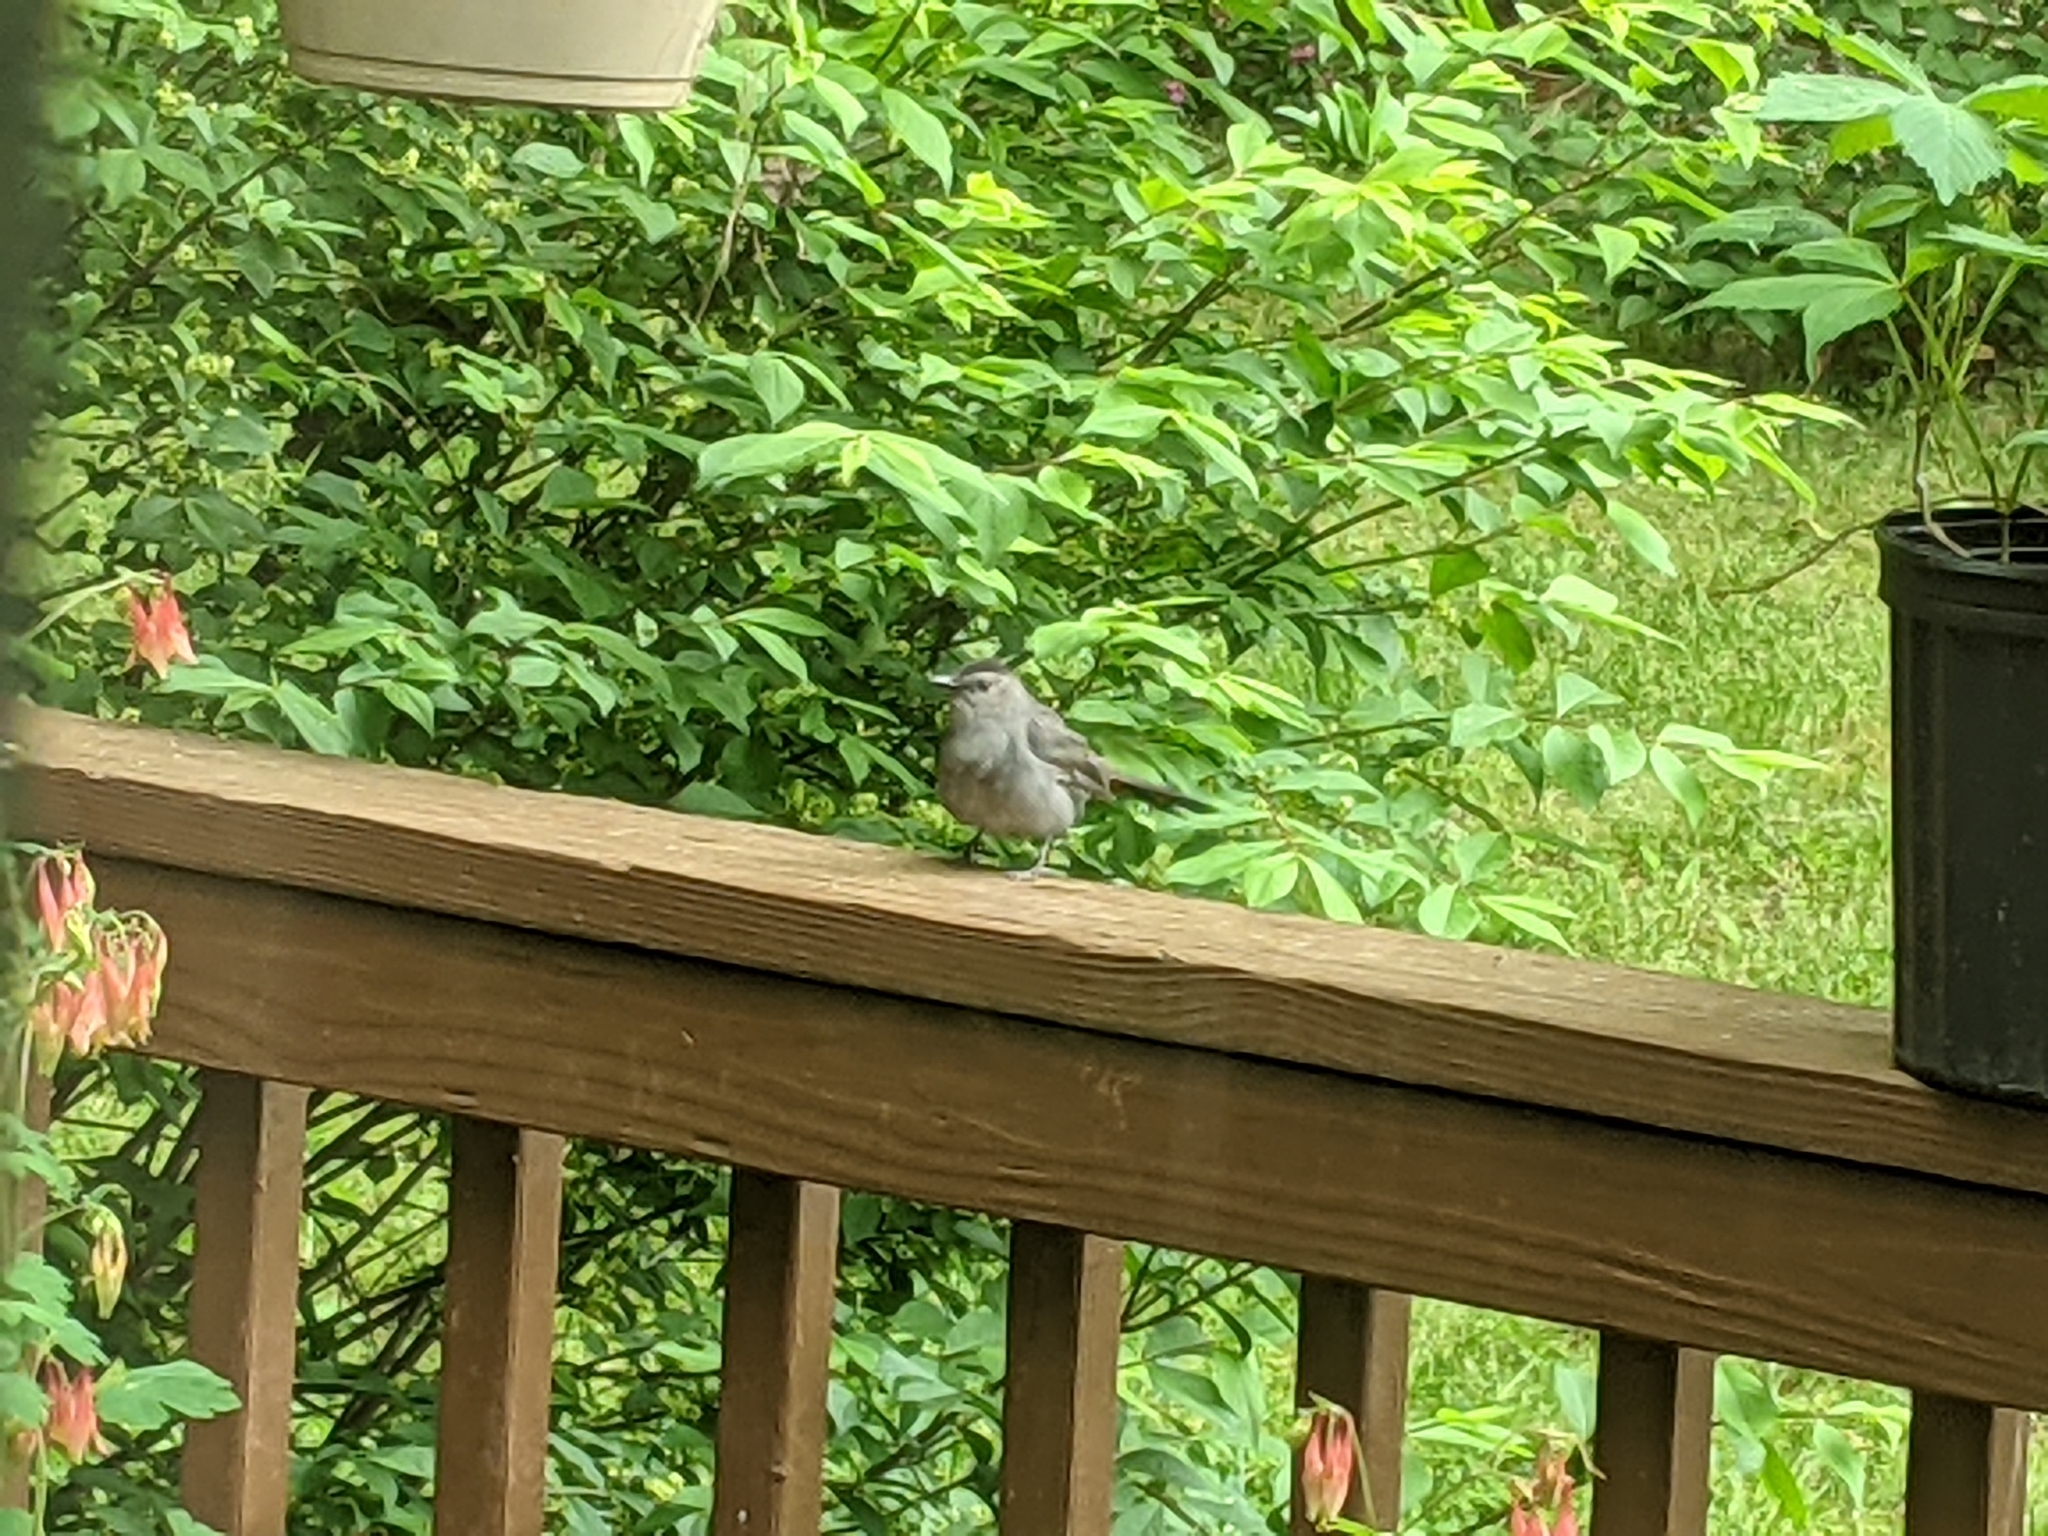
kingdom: Animalia
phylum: Chordata
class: Aves
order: Passeriformes
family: Mimidae
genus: Dumetella
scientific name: Dumetella carolinensis
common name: Gray catbird
